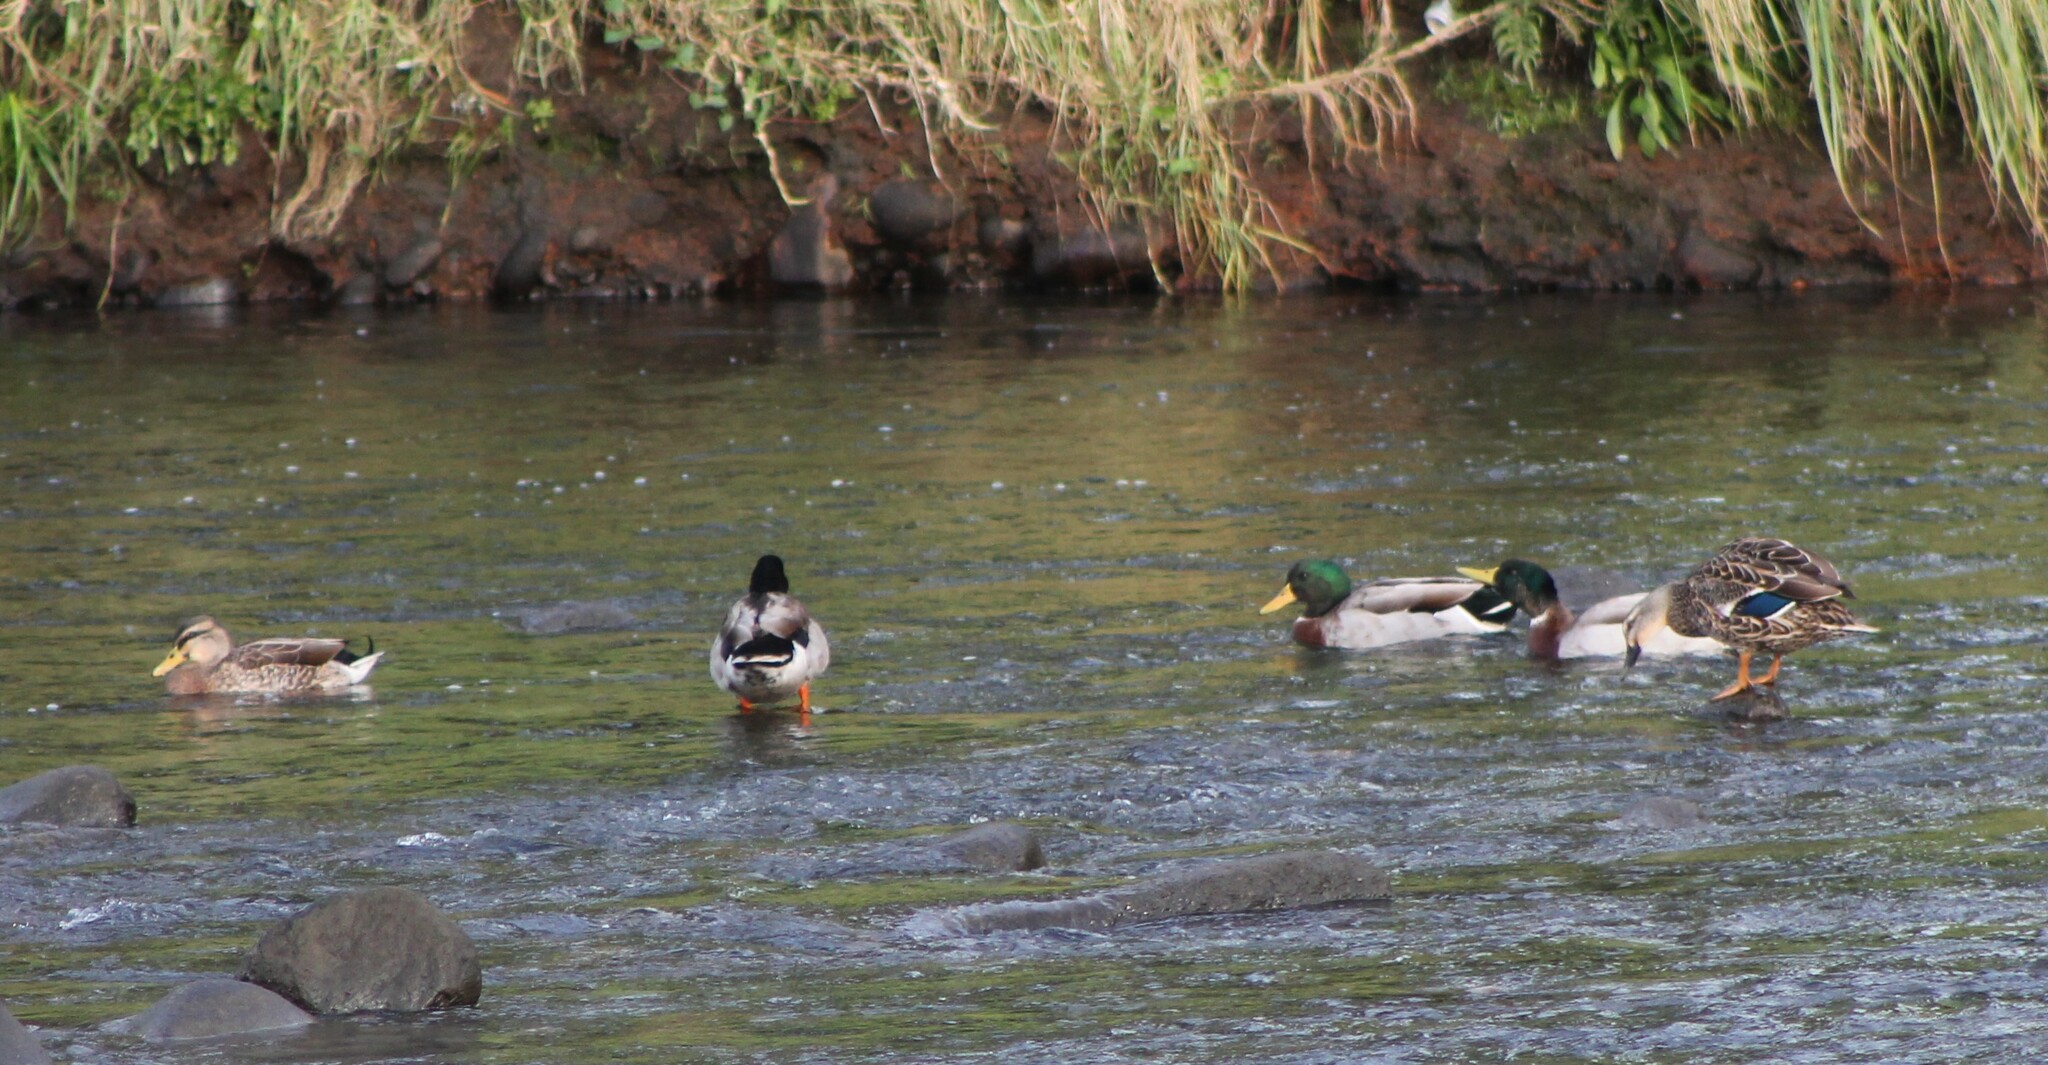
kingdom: Animalia
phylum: Chordata
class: Aves
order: Anseriformes
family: Anatidae
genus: Anas
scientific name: Anas platyrhynchos
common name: Mallard
